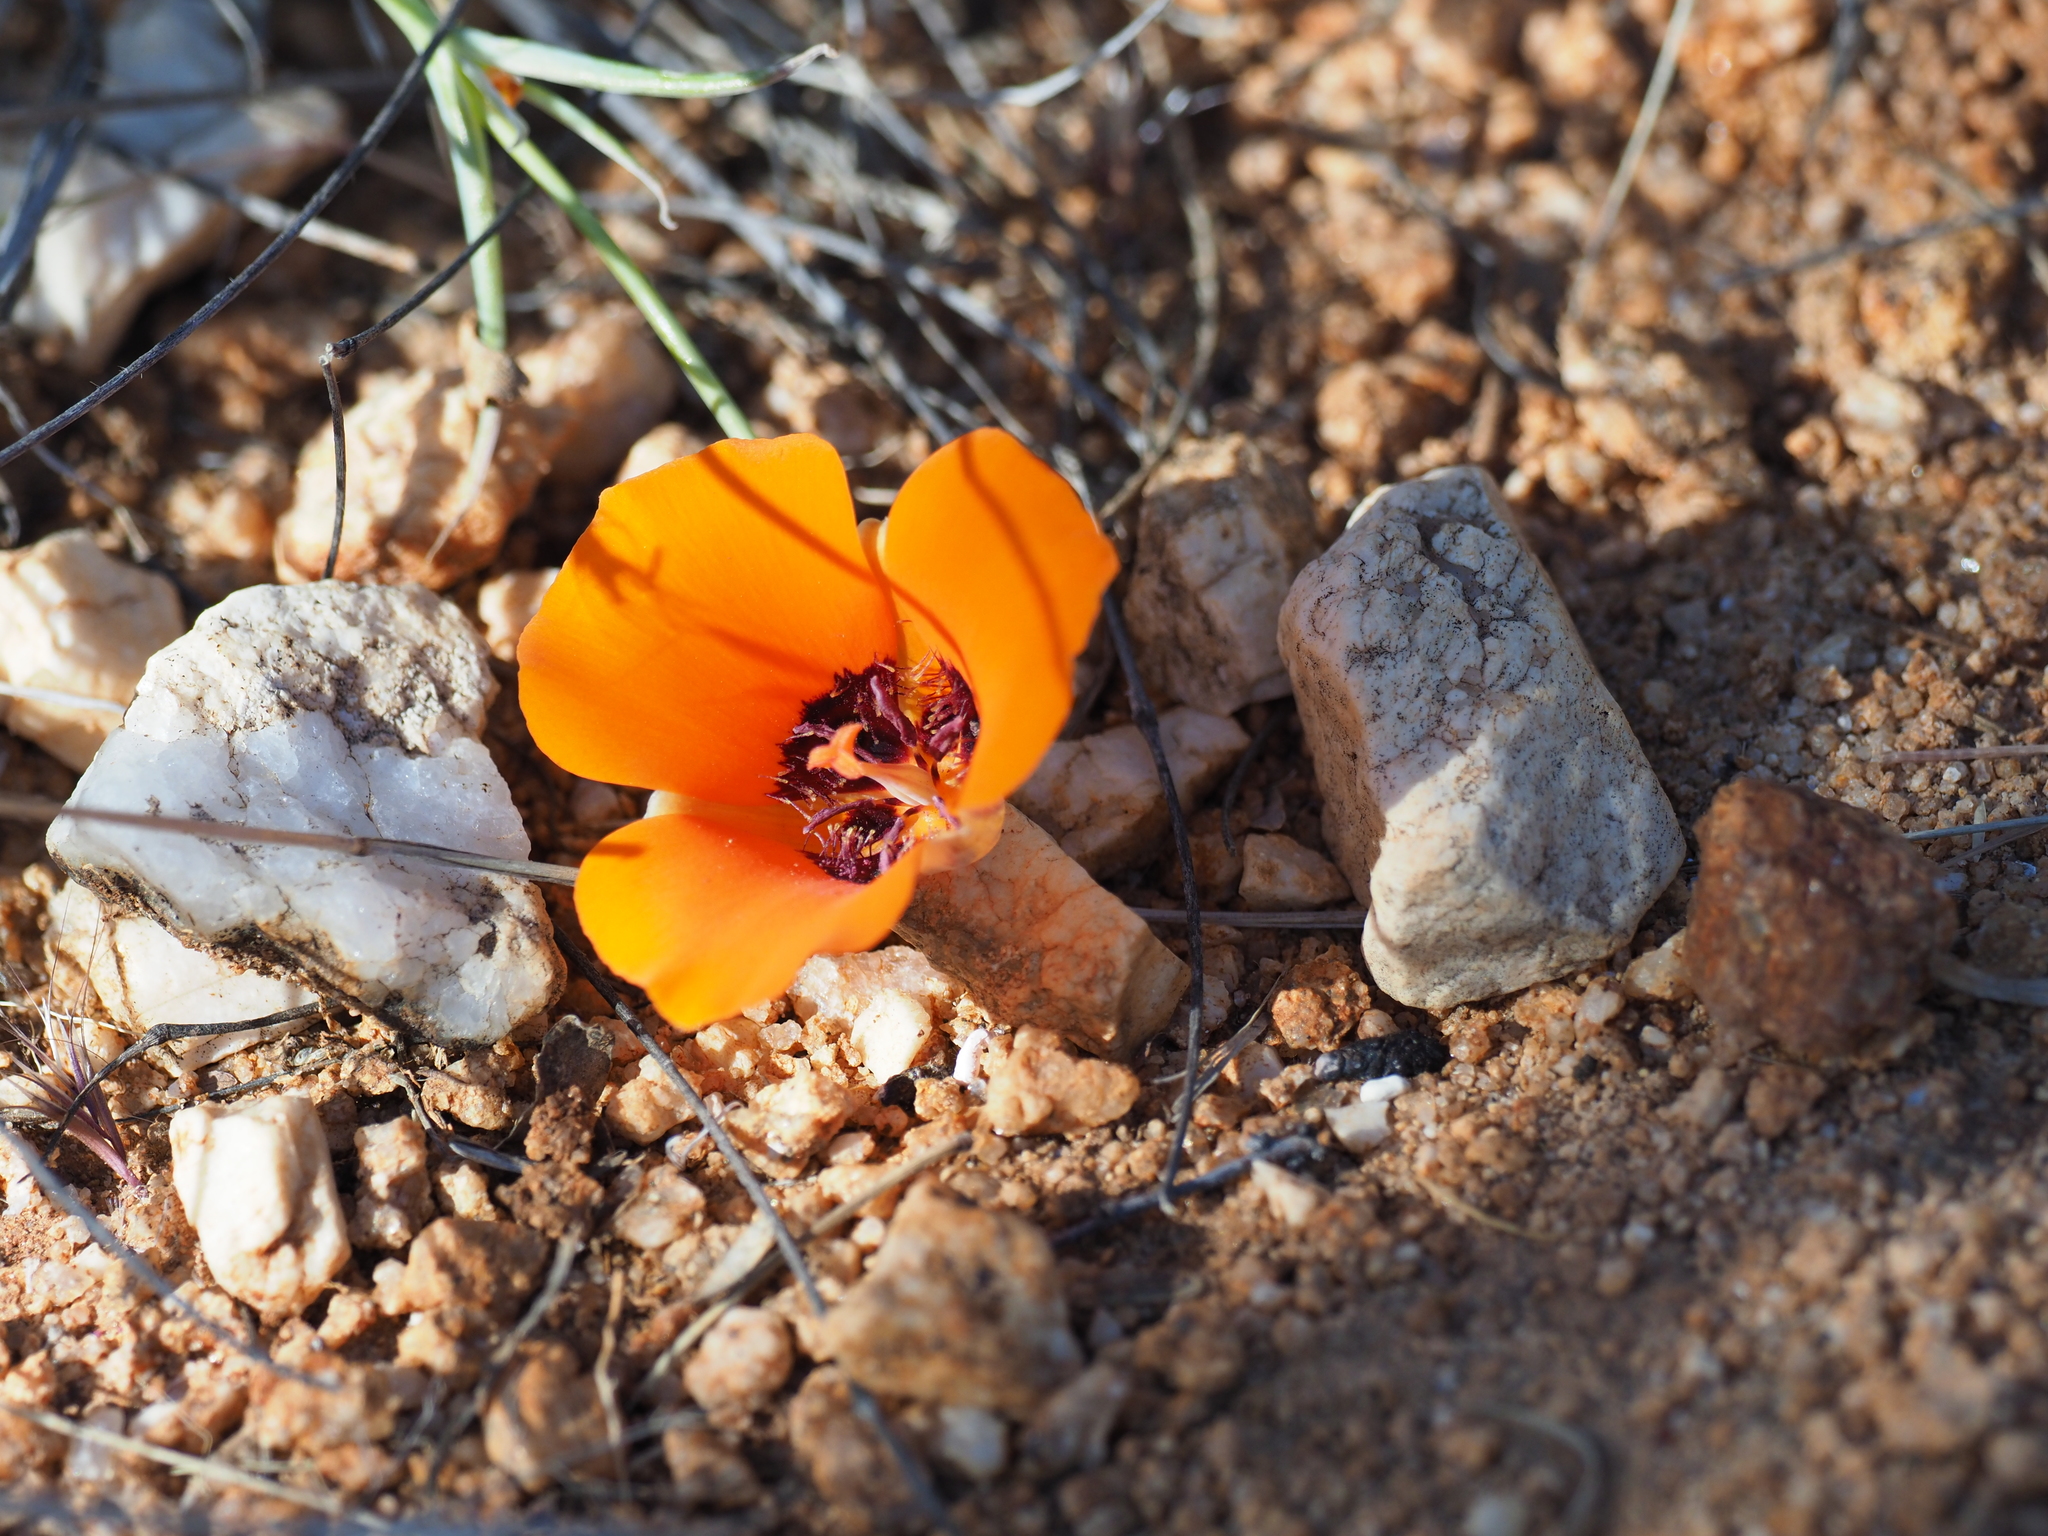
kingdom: Plantae
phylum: Tracheophyta
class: Liliopsida
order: Liliales
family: Liliaceae
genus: Calochortus
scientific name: Calochortus kennedyi
